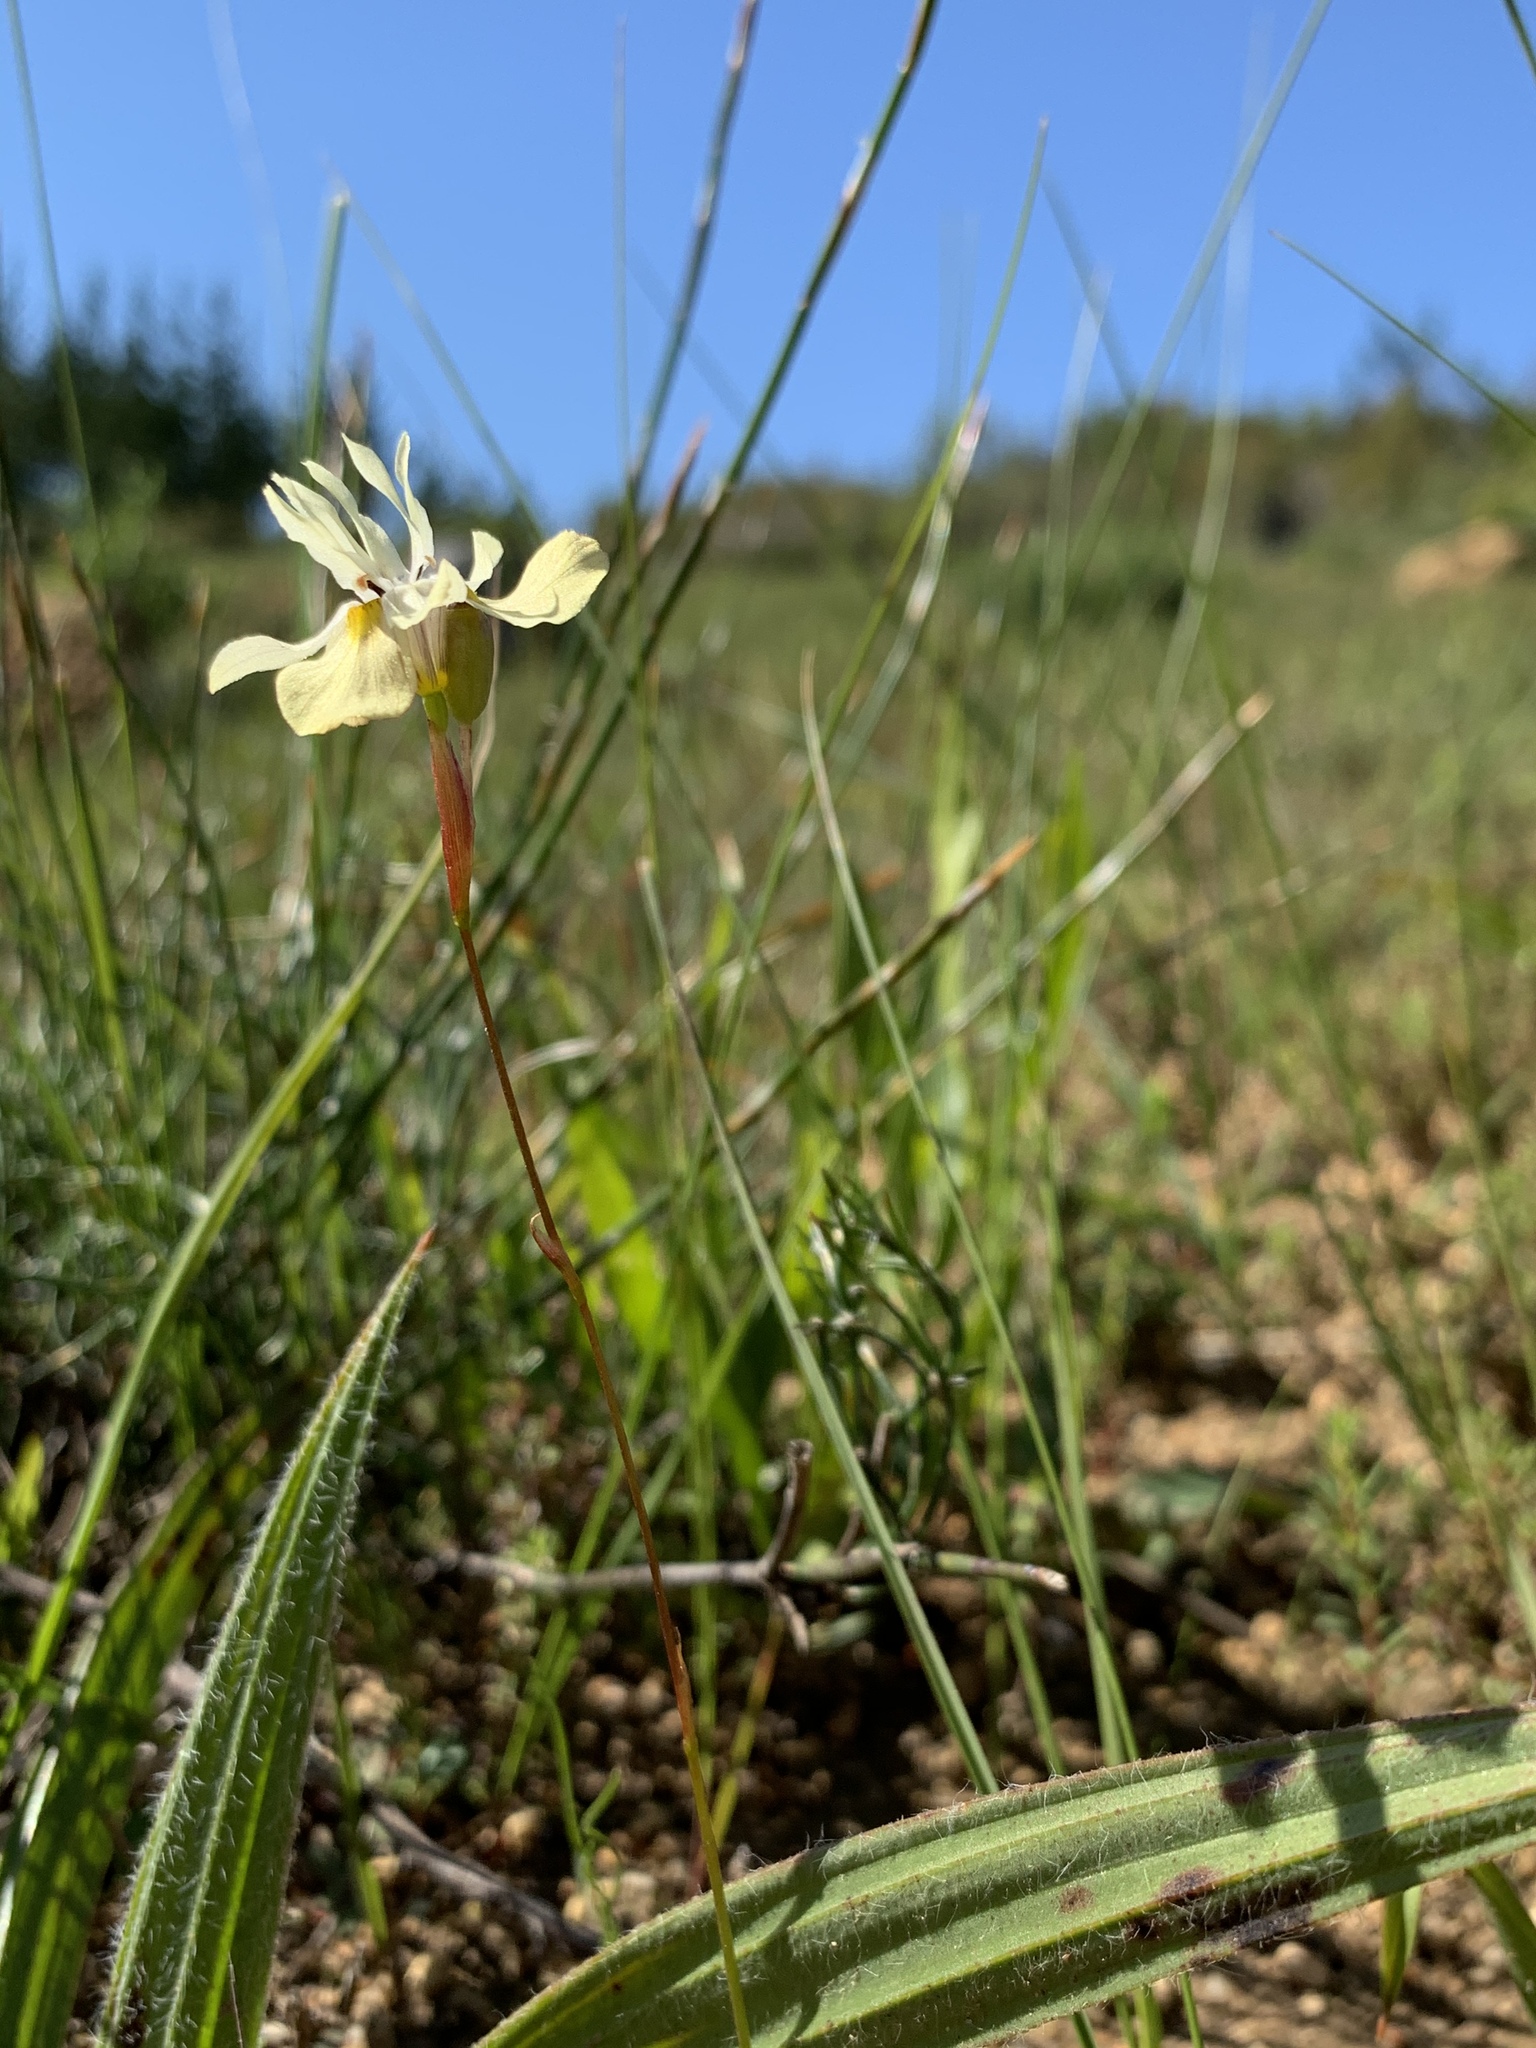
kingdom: Plantae
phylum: Tracheophyta
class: Liliopsida
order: Asparagales
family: Iridaceae
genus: Moraea
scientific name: Moraea gawleri
